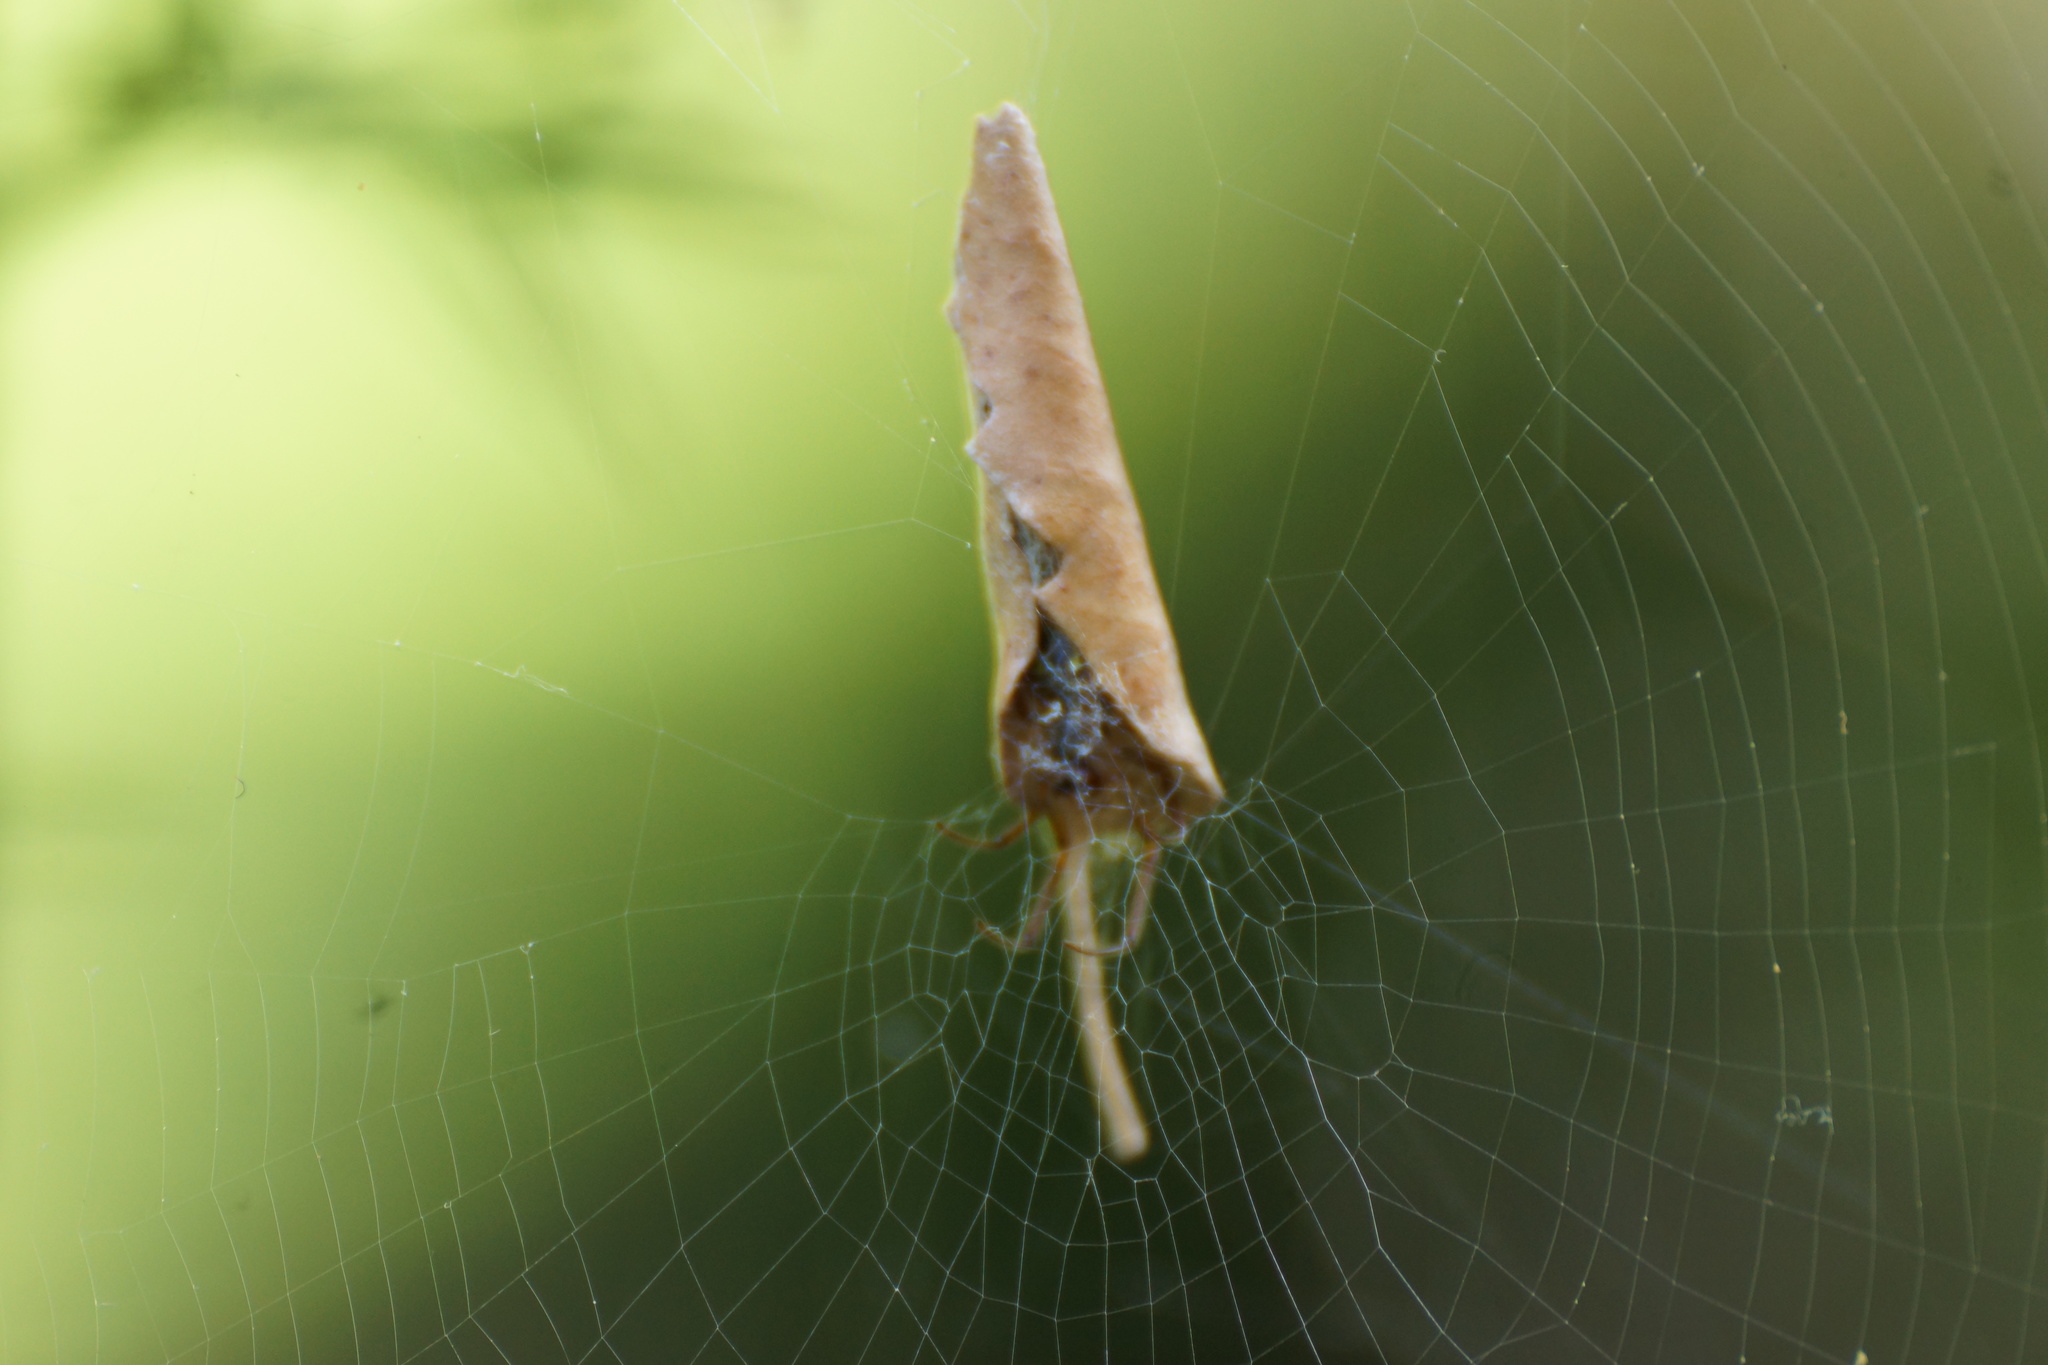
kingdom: Animalia
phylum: Arthropoda
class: Arachnida
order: Araneae
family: Araneidae
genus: Phonognatha
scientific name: Phonognatha graeffei
